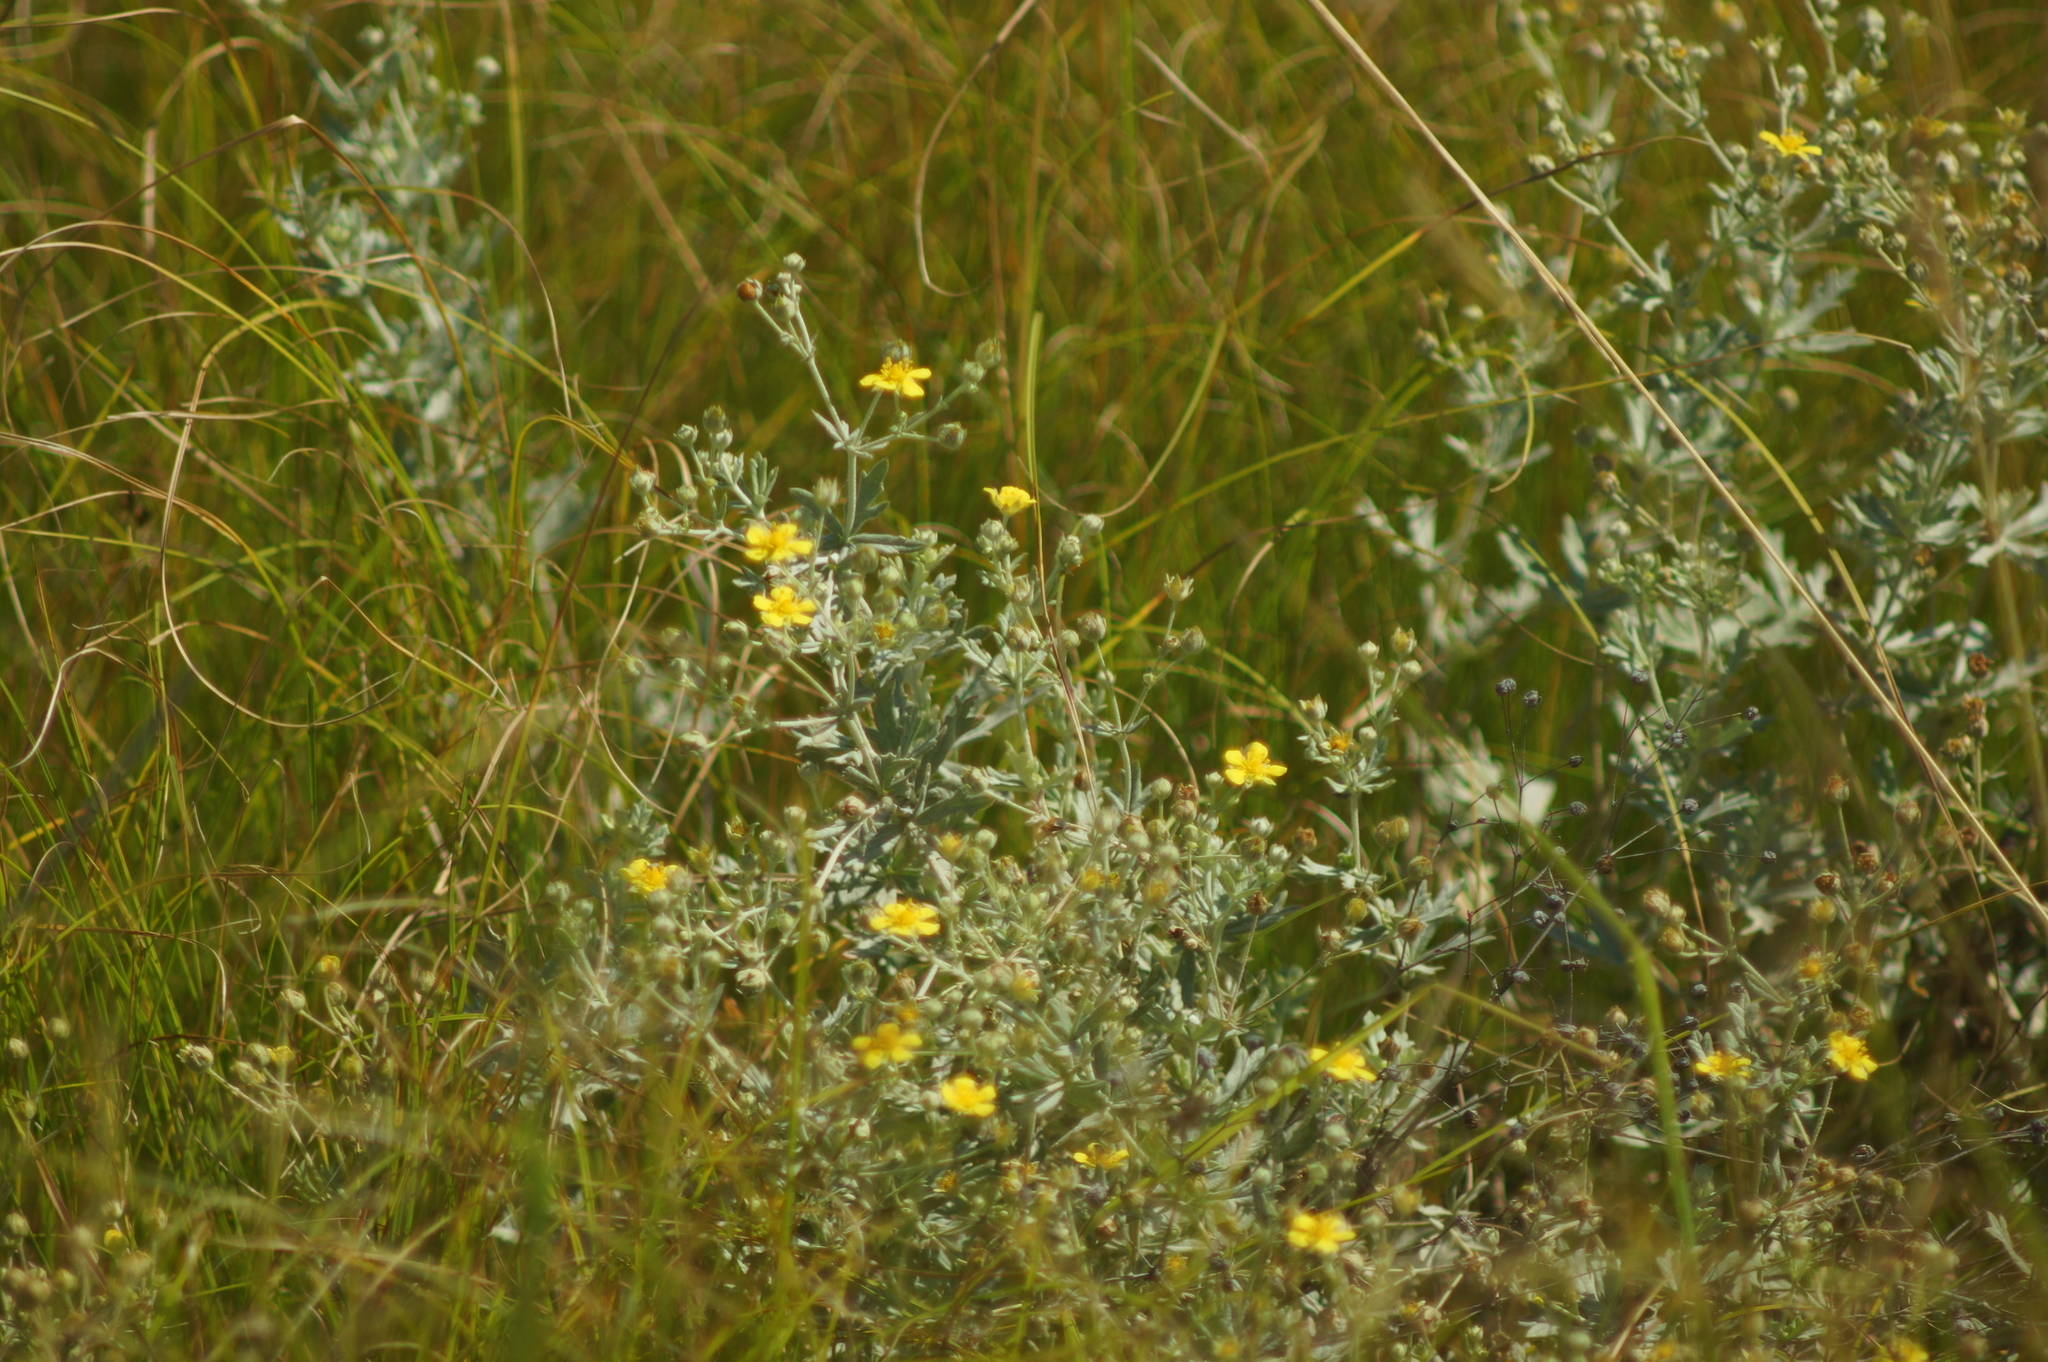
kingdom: Plantae
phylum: Tracheophyta
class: Magnoliopsida
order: Rosales
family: Rosaceae
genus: Potentilla
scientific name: Potentilla argentea
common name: Hoary cinquefoil
